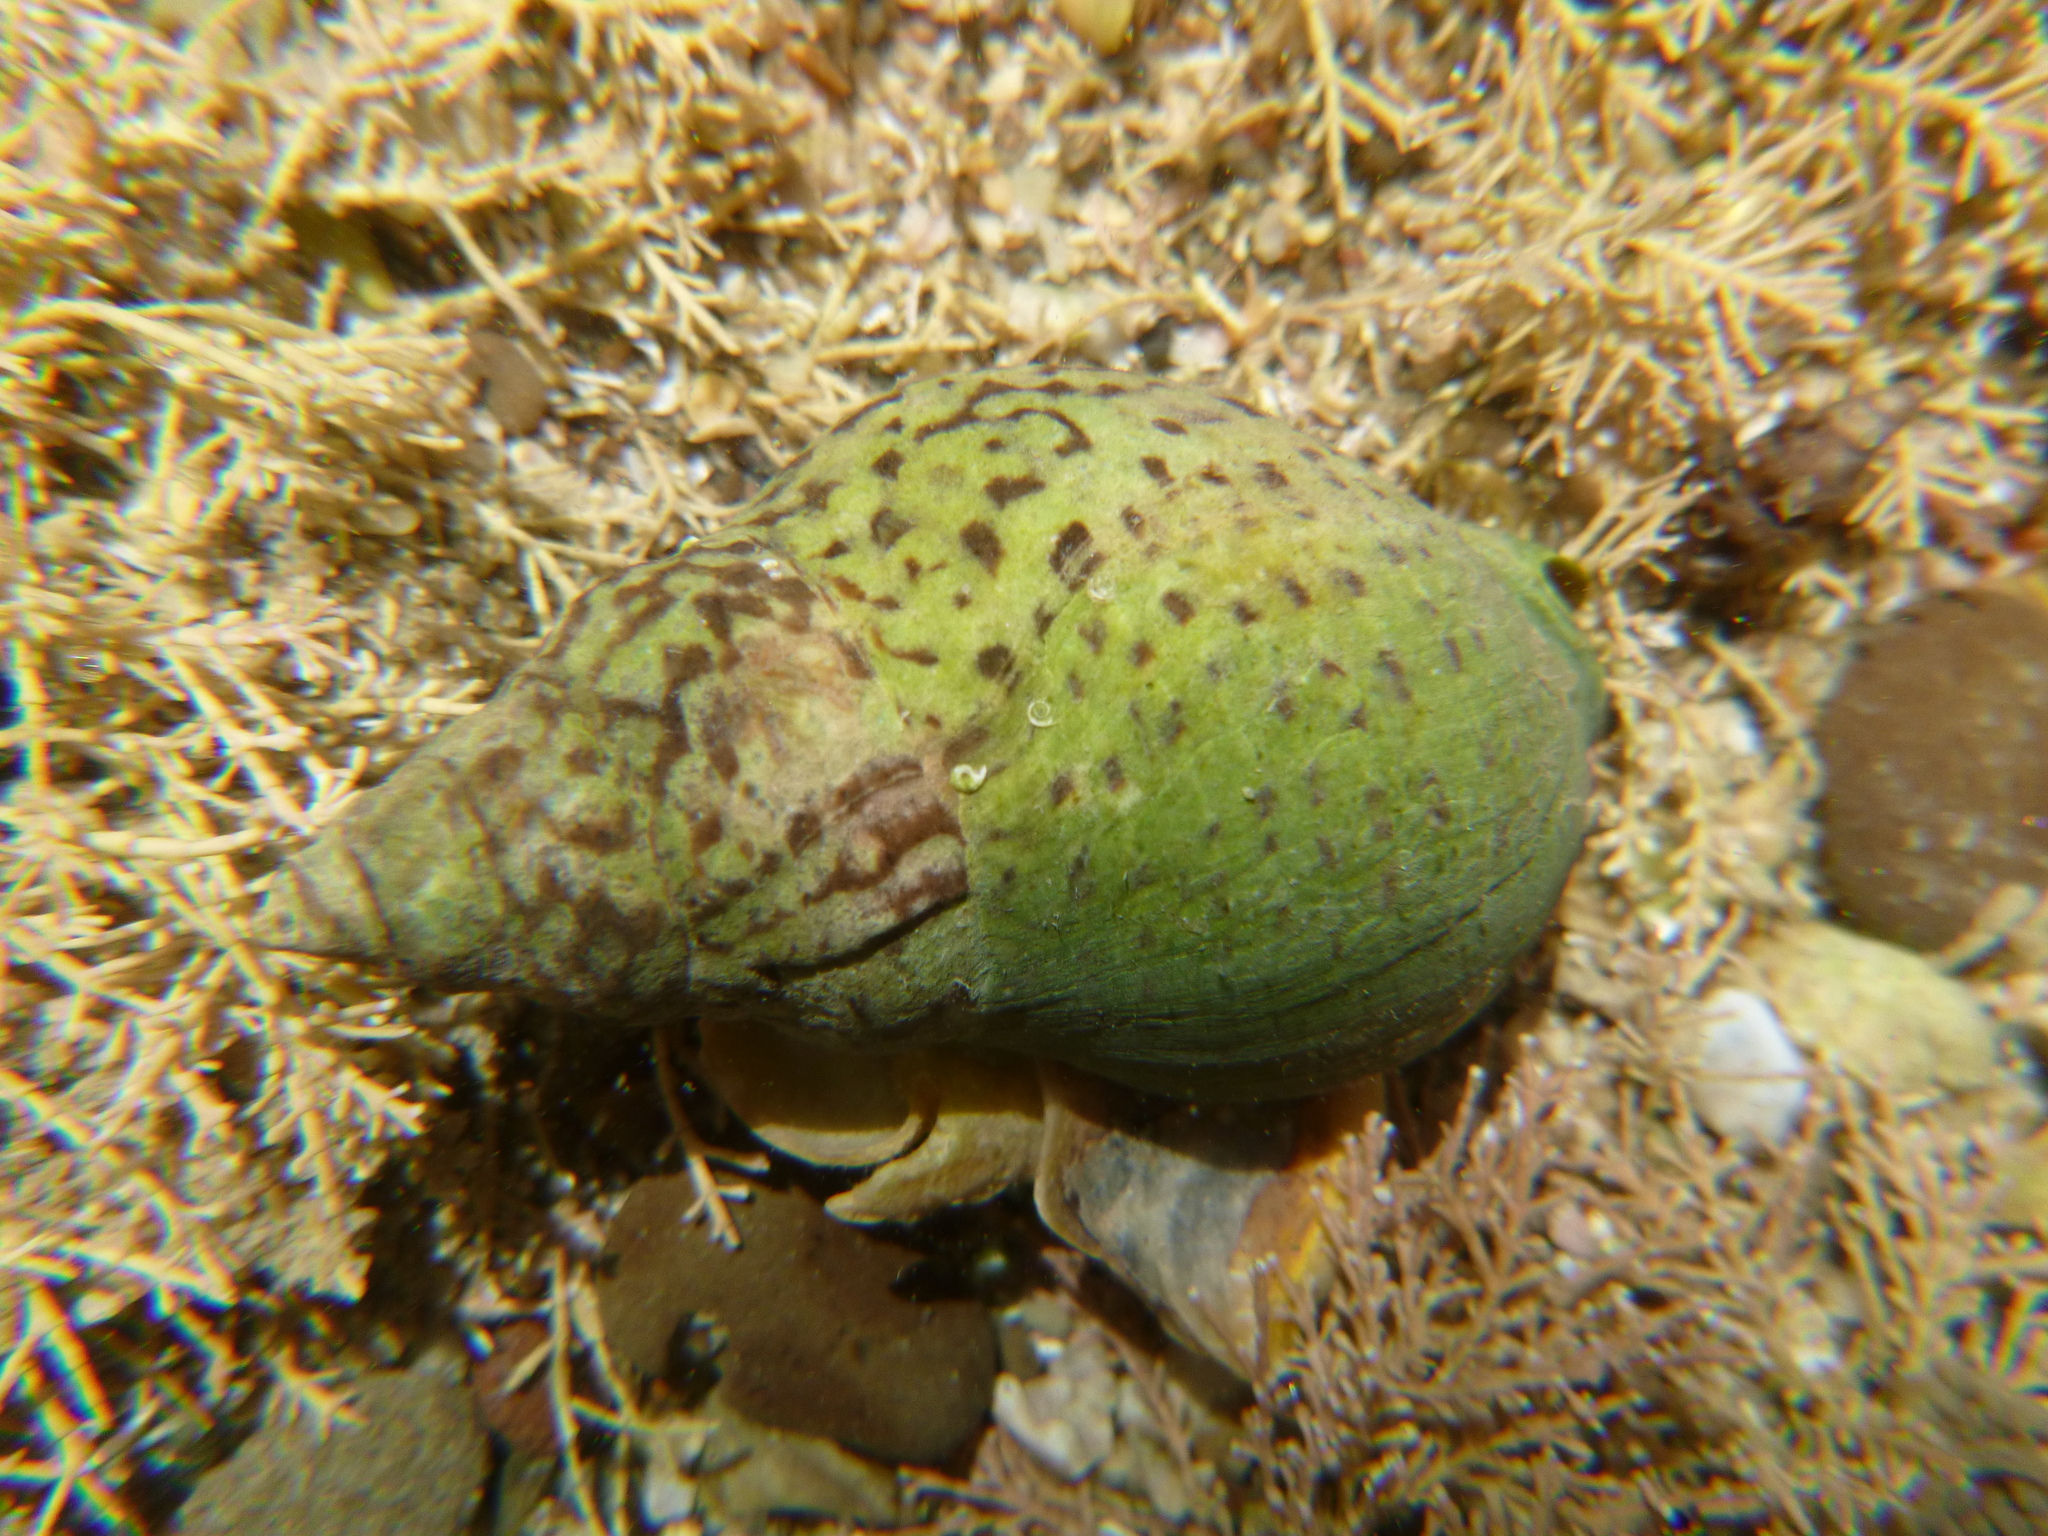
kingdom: Animalia
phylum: Mollusca
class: Gastropoda
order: Neogastropoda
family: Cominellidae
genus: Cominella
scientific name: Cominella maculosa
